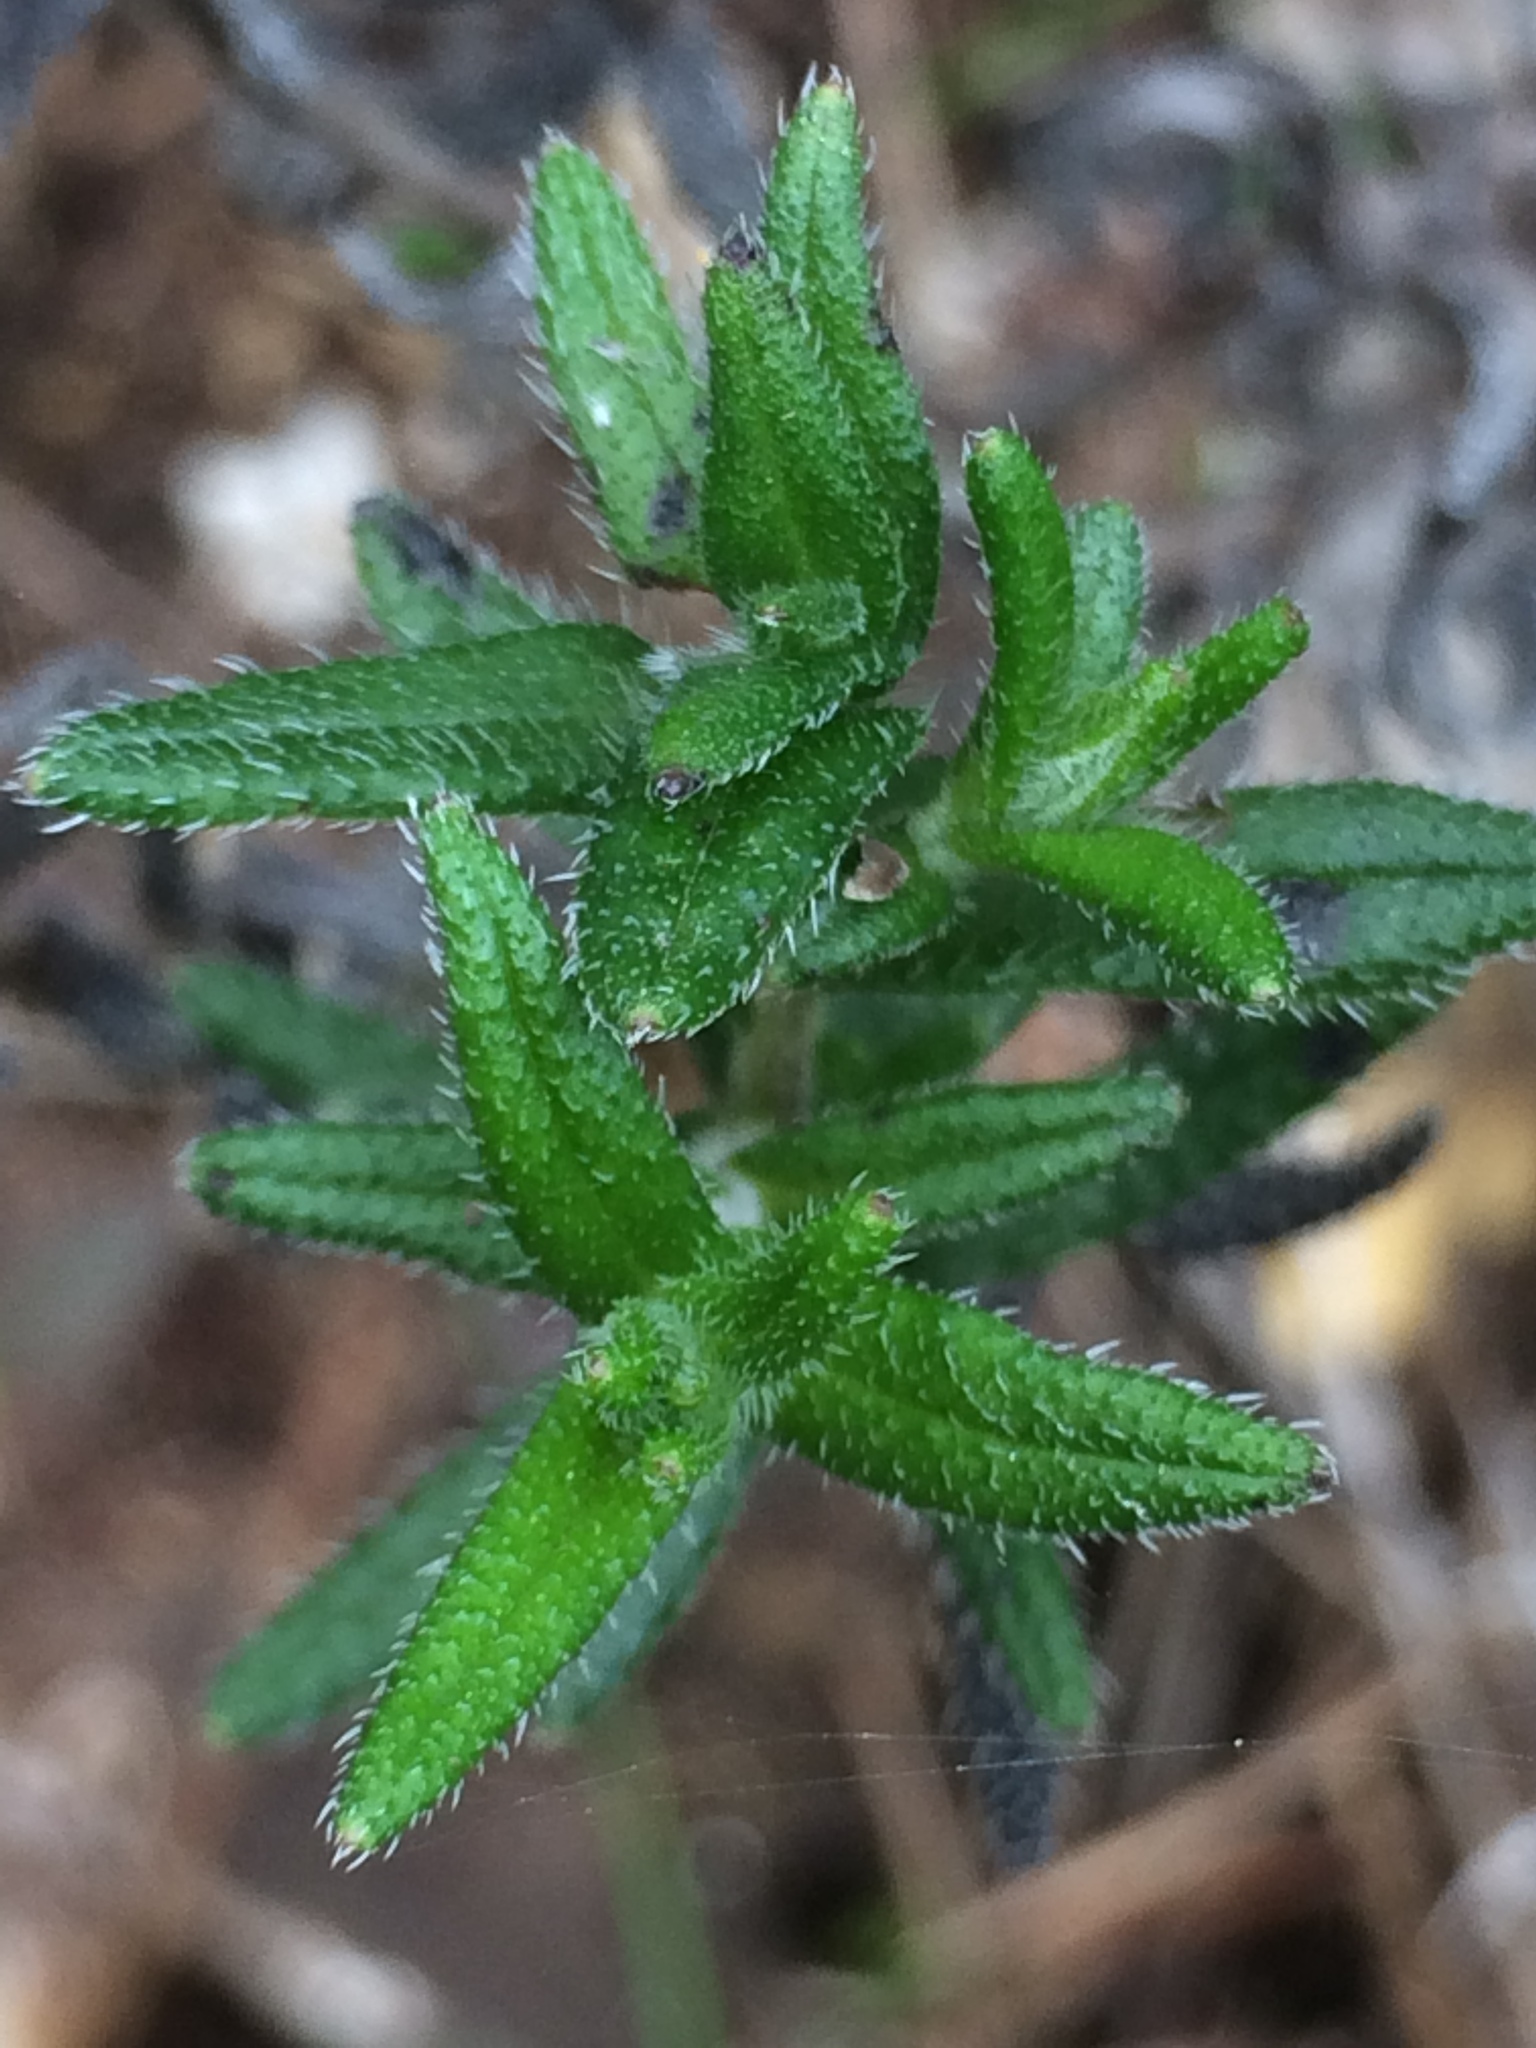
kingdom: Plantae
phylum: Tracheophyta
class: Magnoliopsida
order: Boraginales
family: Boraginaceae
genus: Glandora
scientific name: Glandora prostrata
